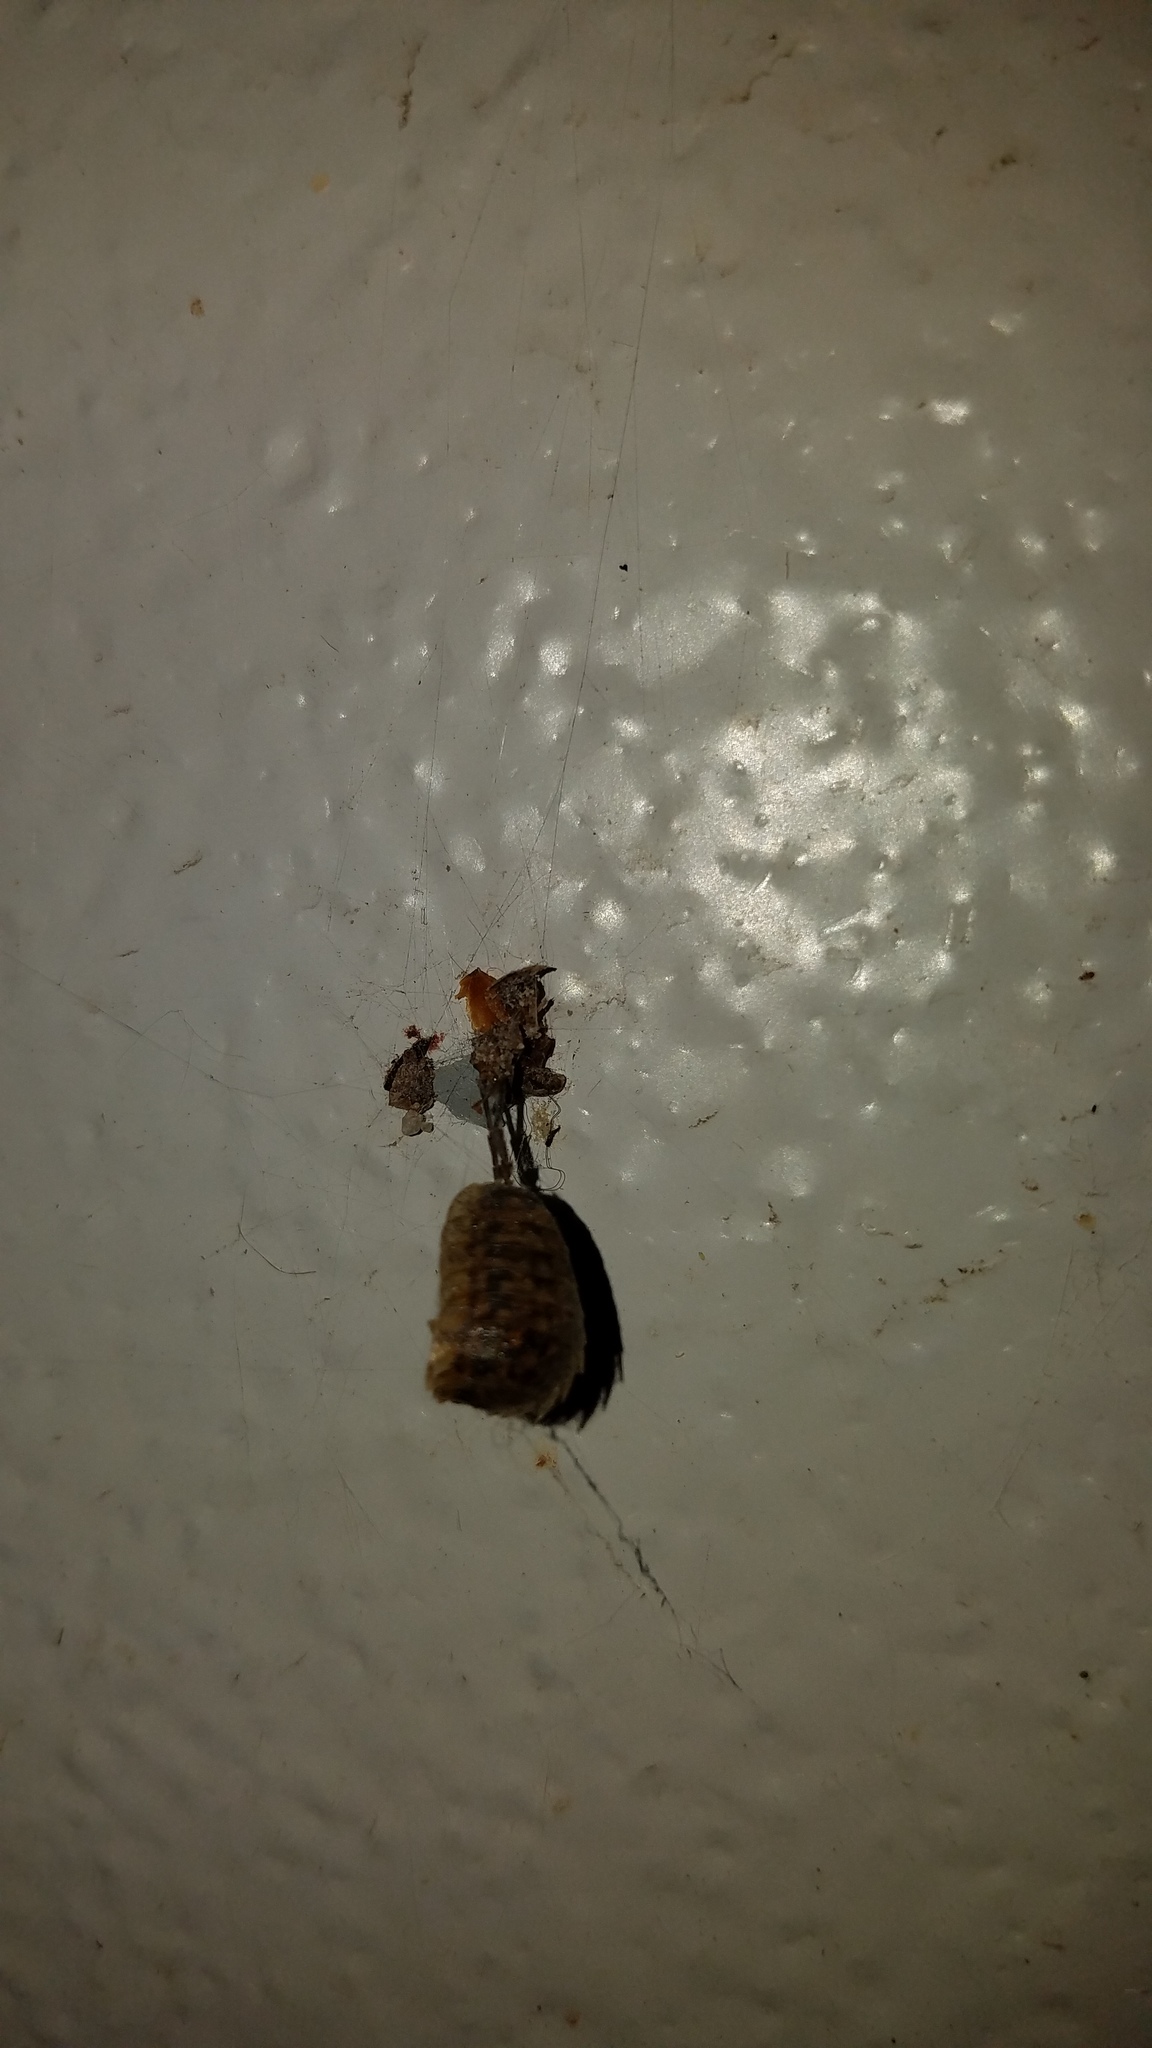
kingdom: Animalia
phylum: Arthropoda
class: Malacostraca
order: Isopoda
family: Porcellionidae
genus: Porcellio
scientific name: Porcellio scaber
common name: Common rough woodlouse
